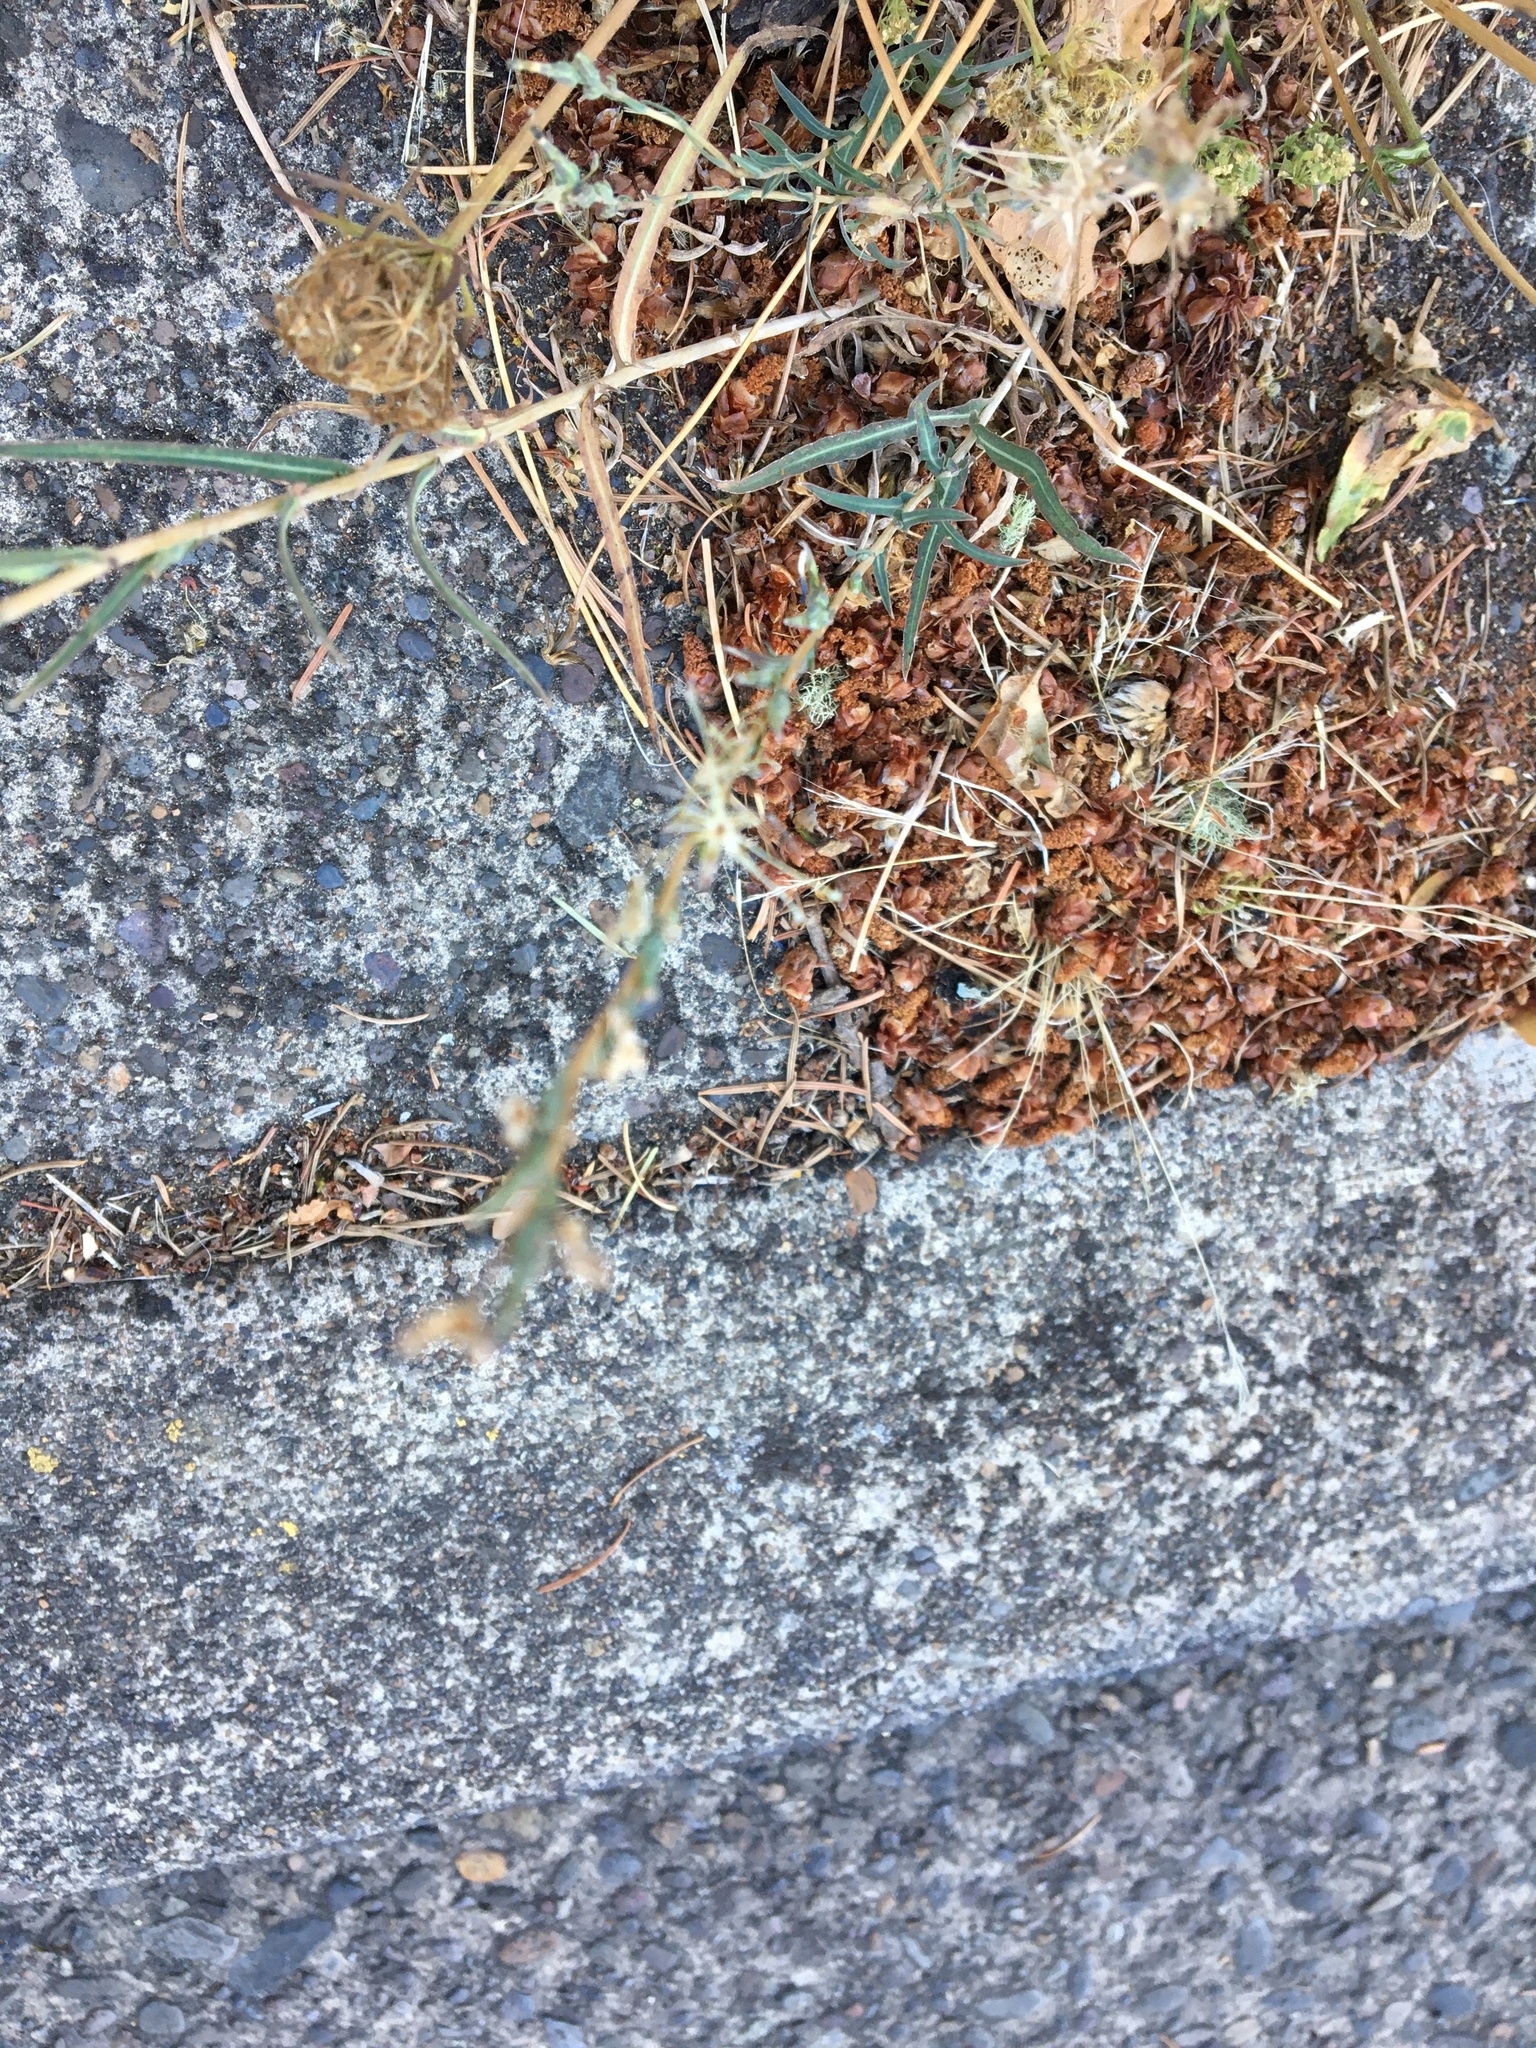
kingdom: Plantae
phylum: Tracheophyta
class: Magnoliopsida
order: Asterales
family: Asteraceae
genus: Lactuca
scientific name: Lactuca saligna
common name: Wild lettuce
